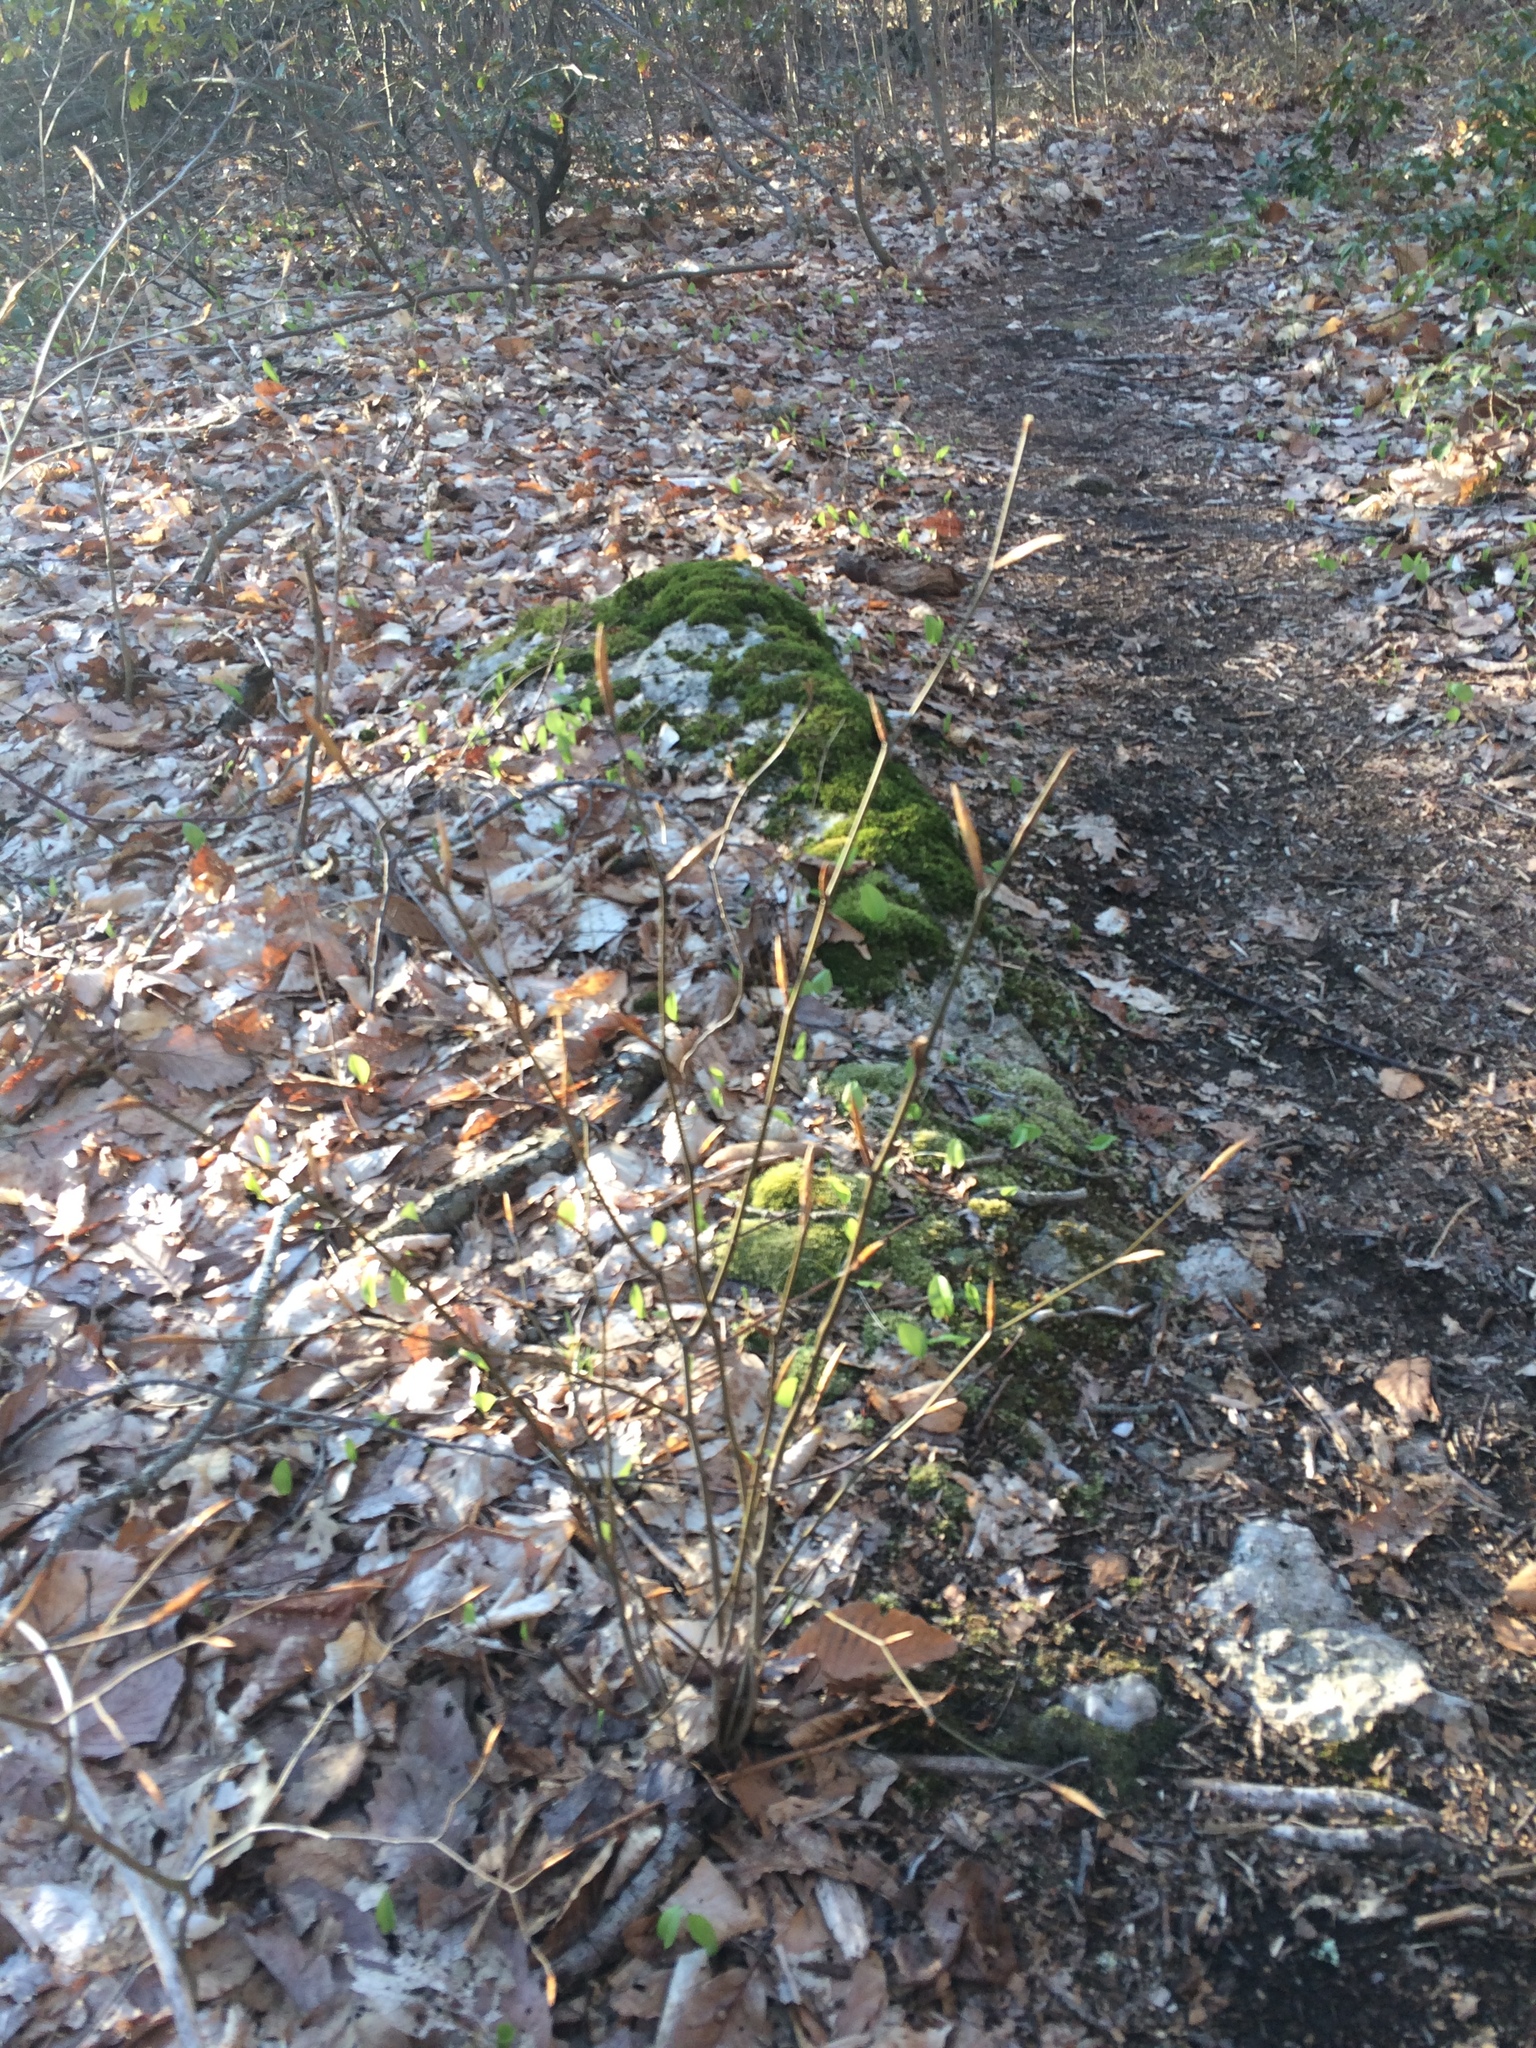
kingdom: Plantae
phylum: Tracheophyta
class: Magnoliopsida
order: Fagales
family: Fagaceae
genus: Fagus
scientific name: Fagus grandifolia
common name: American beech
